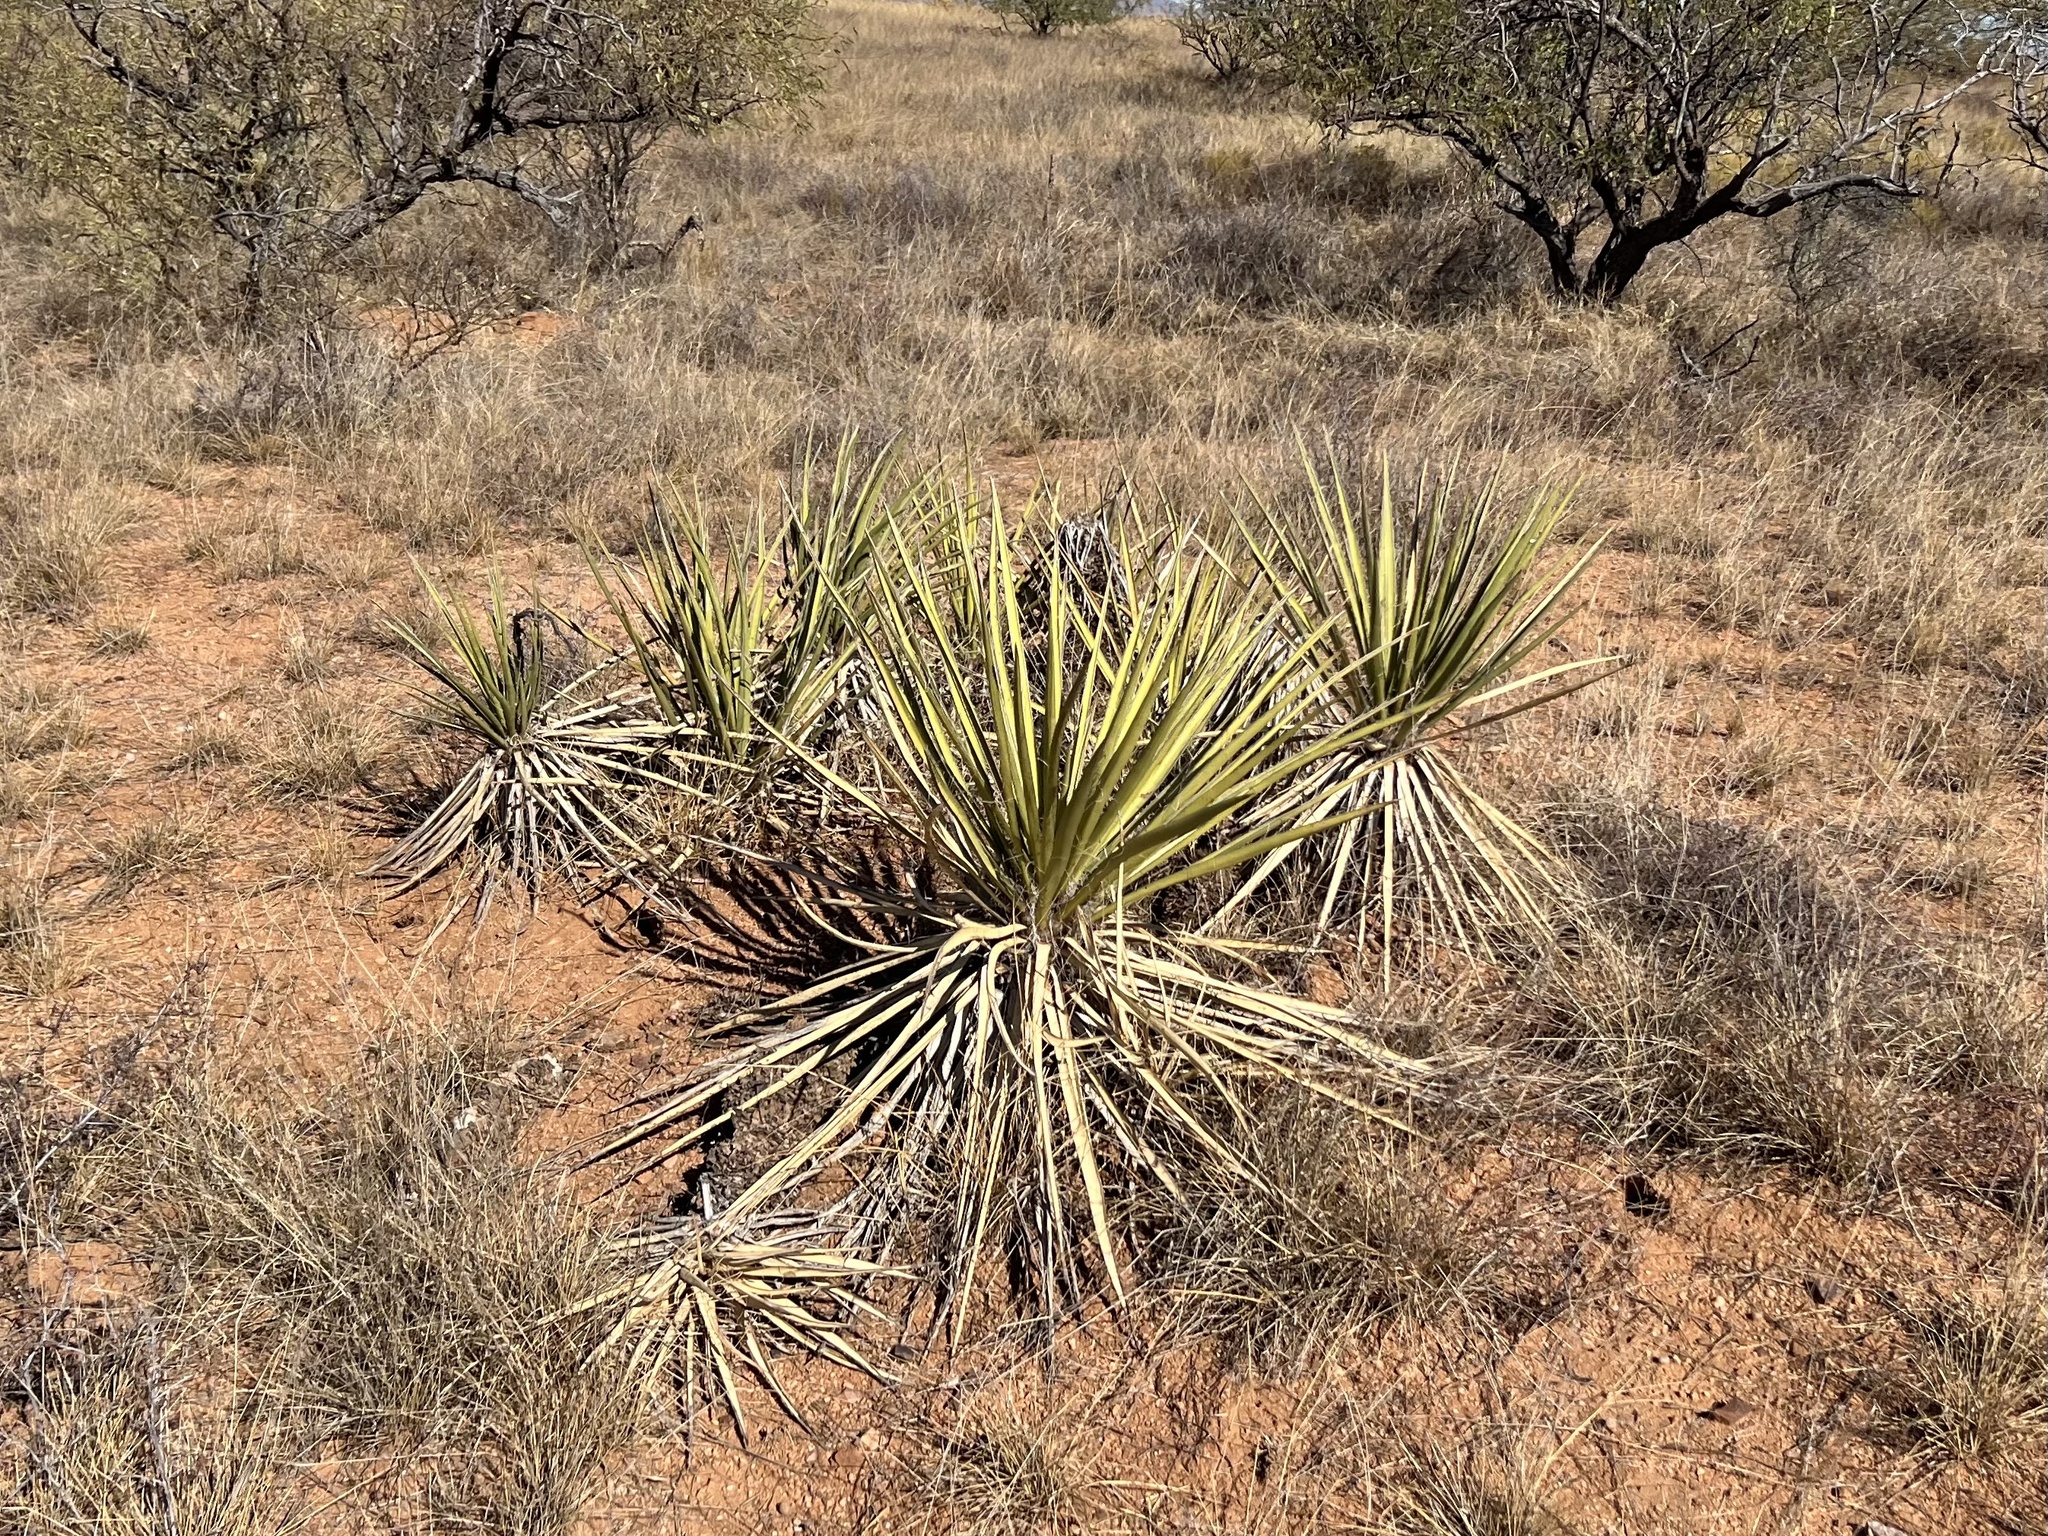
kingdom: Plantae
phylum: Tracheophyta
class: Liliopsida
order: Asparagales
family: Asparagaceae
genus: Yucca
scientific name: Yucca baccata
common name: Banana yucca
